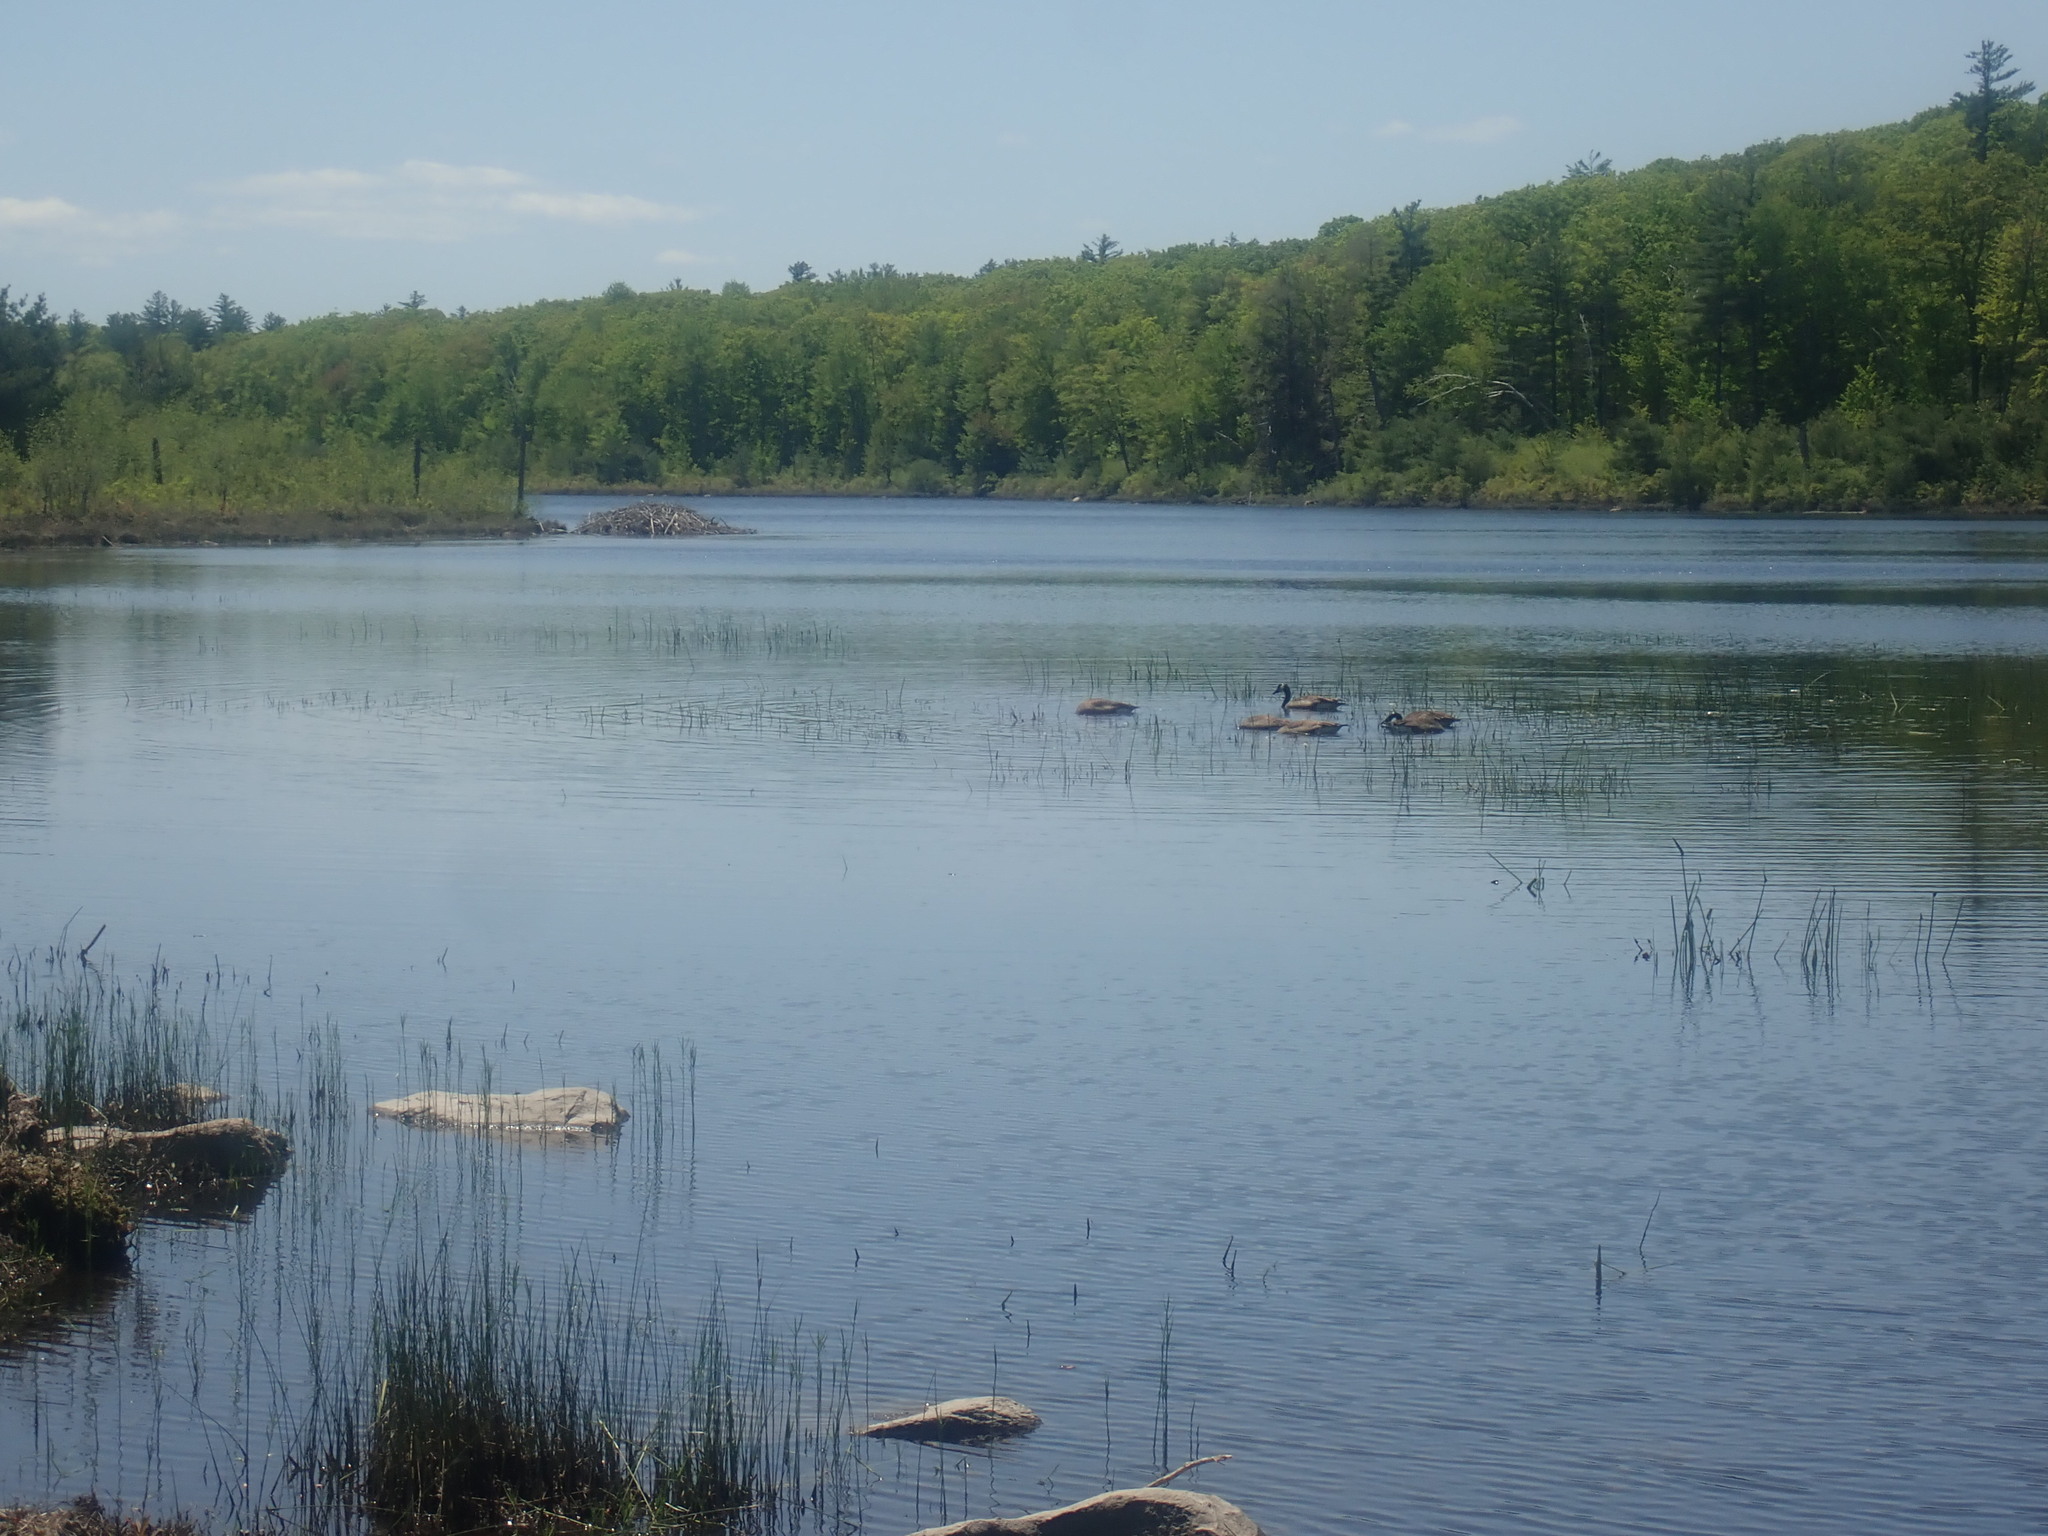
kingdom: Animalia
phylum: Chordata
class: Aves
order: Anseriformes
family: Anatidae
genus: Branta
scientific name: Branta canadensis
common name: Canada goose
